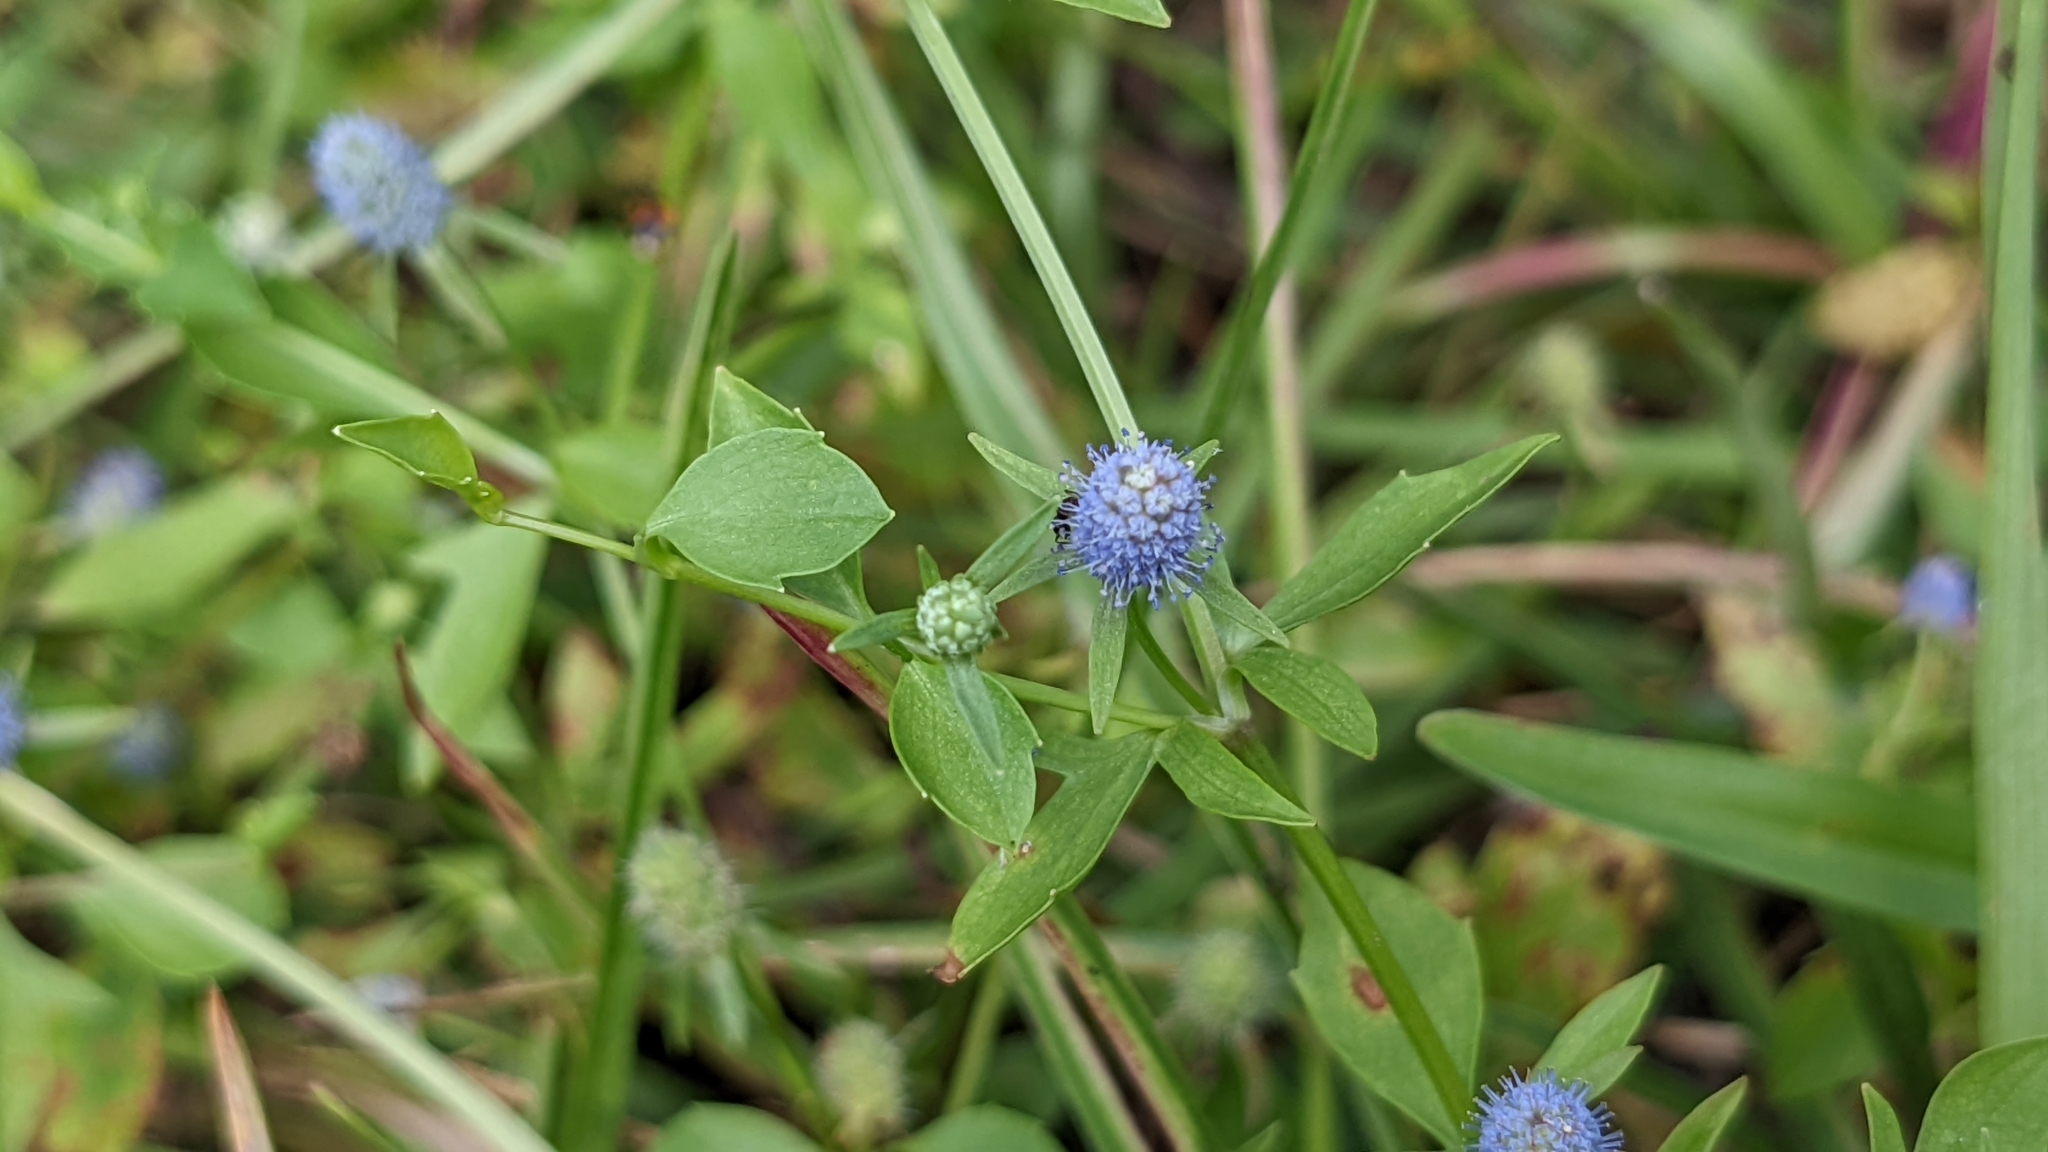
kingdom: Plantae
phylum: Tracheophyta
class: Magnoliopsida
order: Apiales
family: Apiaceae
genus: Eryngium
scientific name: Eryngium prostratum
